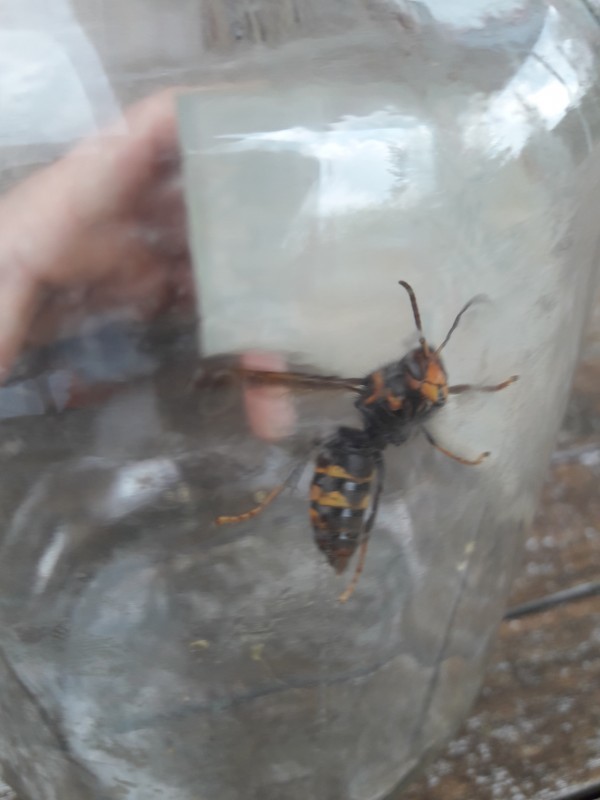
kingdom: Animalia
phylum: Arthropoda
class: Insecta
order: Hymenoptera
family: Vespidae
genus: Vespa
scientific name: Vespa velutina
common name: Asian hornet
